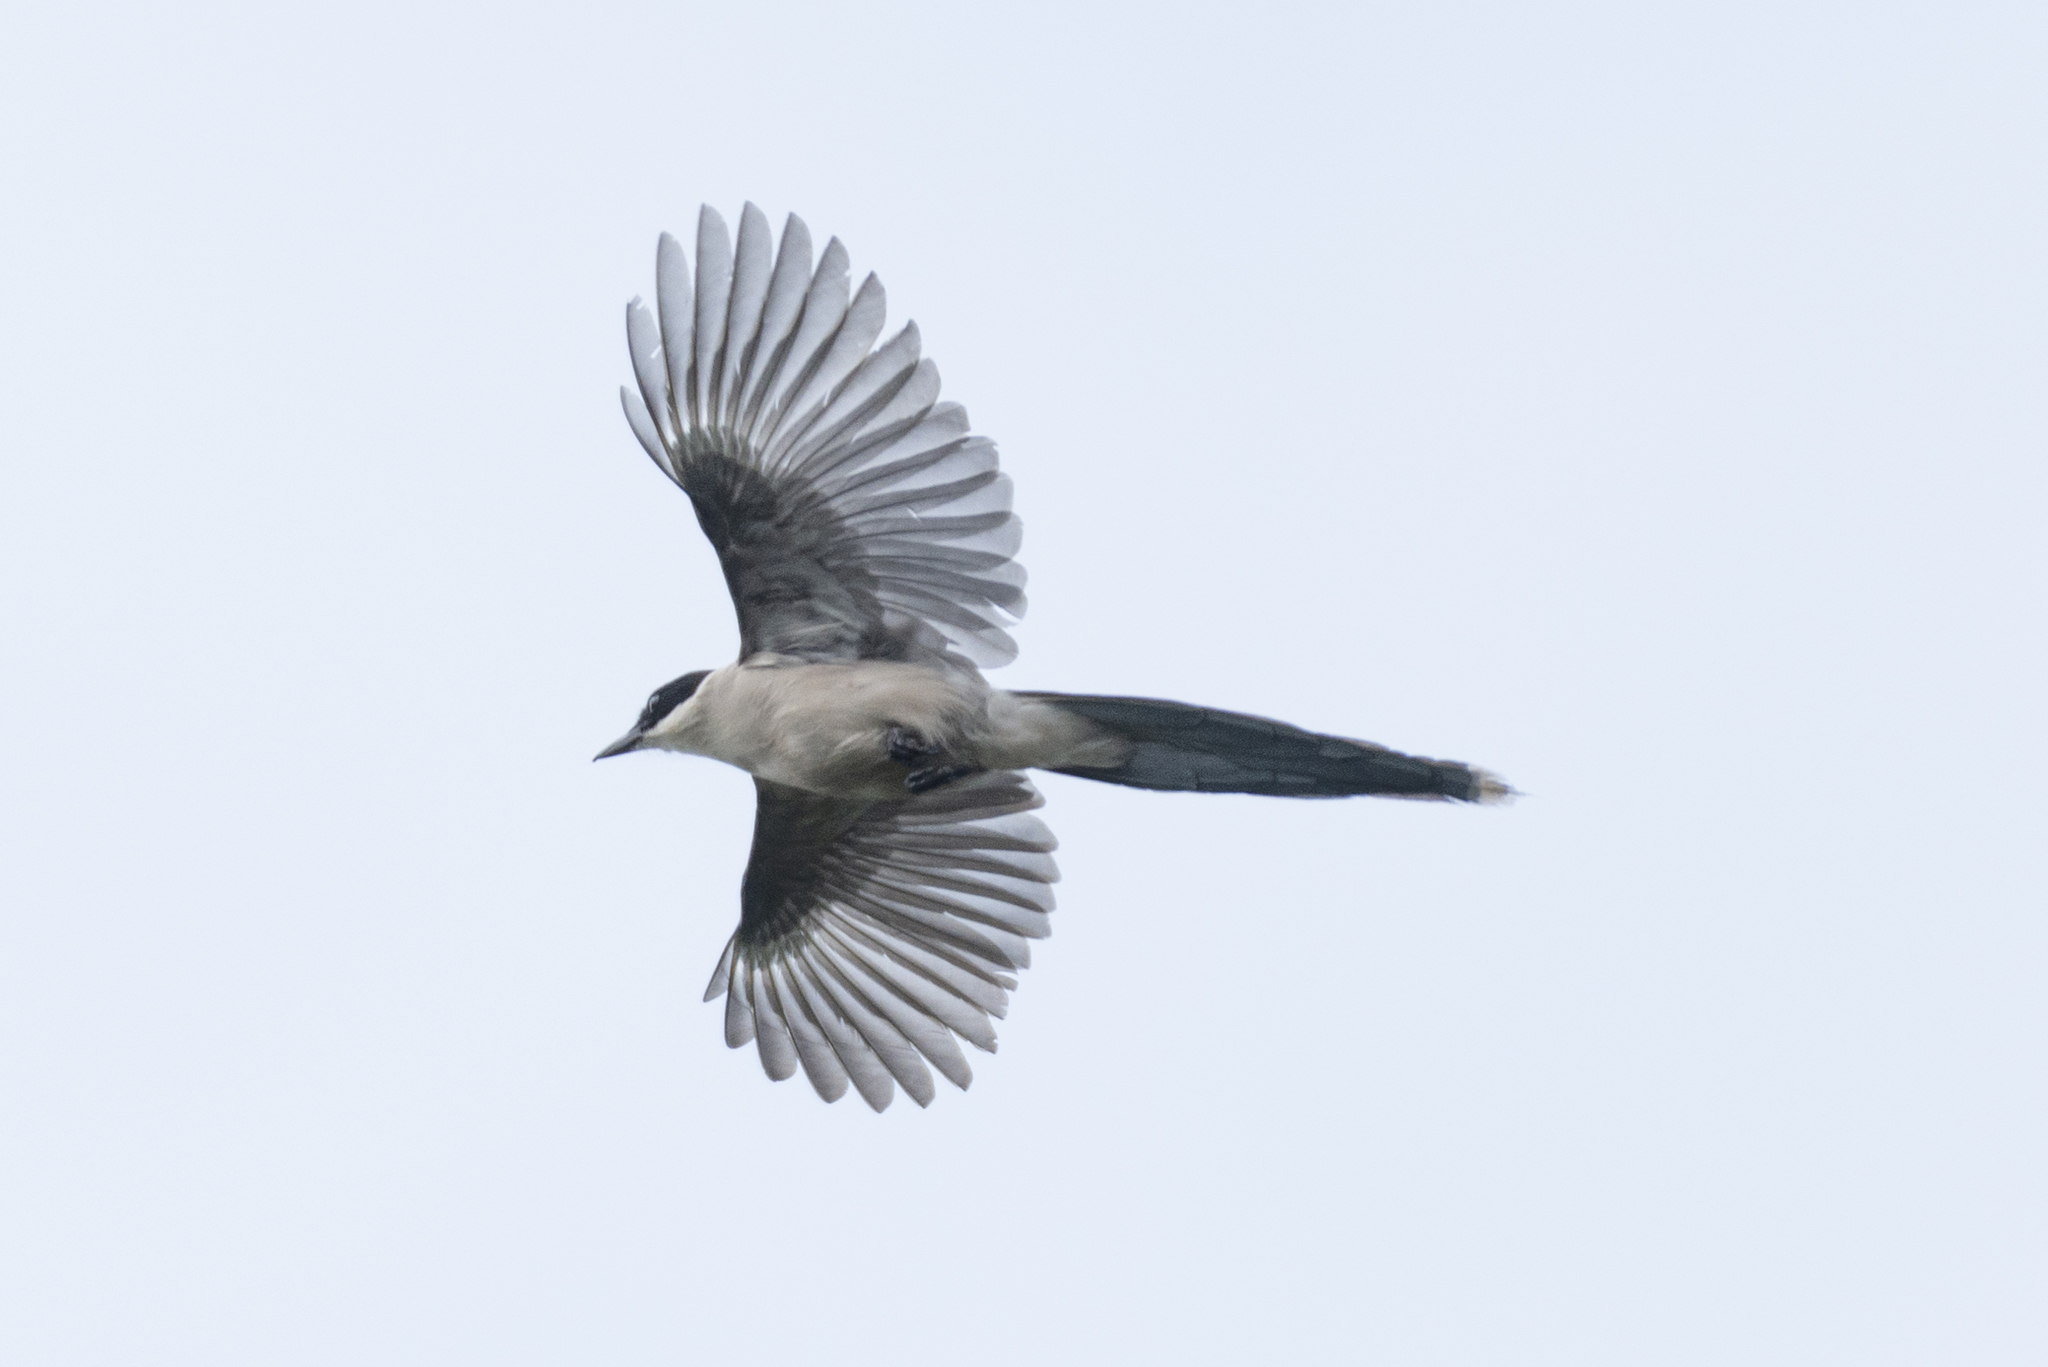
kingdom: Animalia
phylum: Chordata
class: Aves
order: Passeriformes
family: Corvidae
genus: Cyanopica
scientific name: Cyanopica cyanus
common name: Azure-winged magpie
